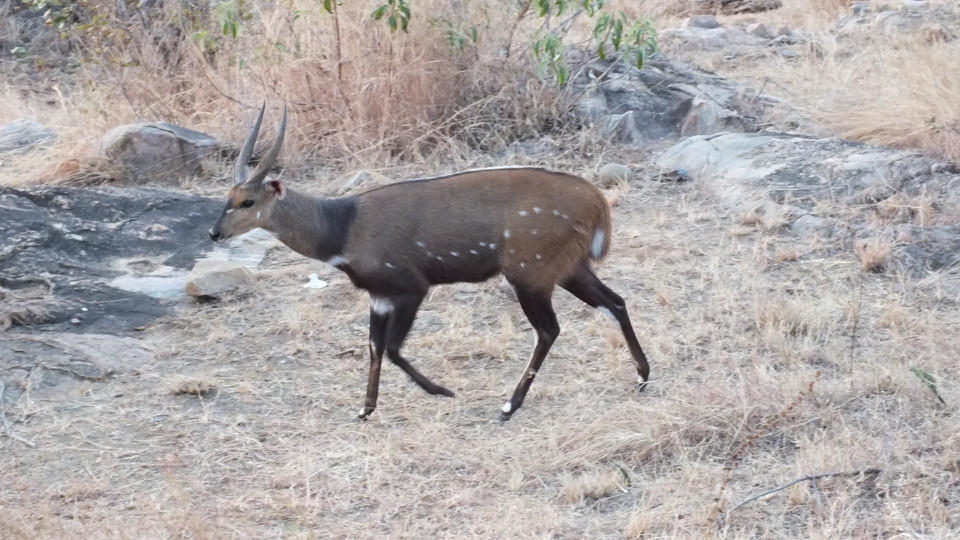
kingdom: Animalia
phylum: Chordata
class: Mammalia
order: Artiodactyla
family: Bovidae
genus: Tragelaphus
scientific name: Tragelaphus scriptus
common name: Bushbuck
